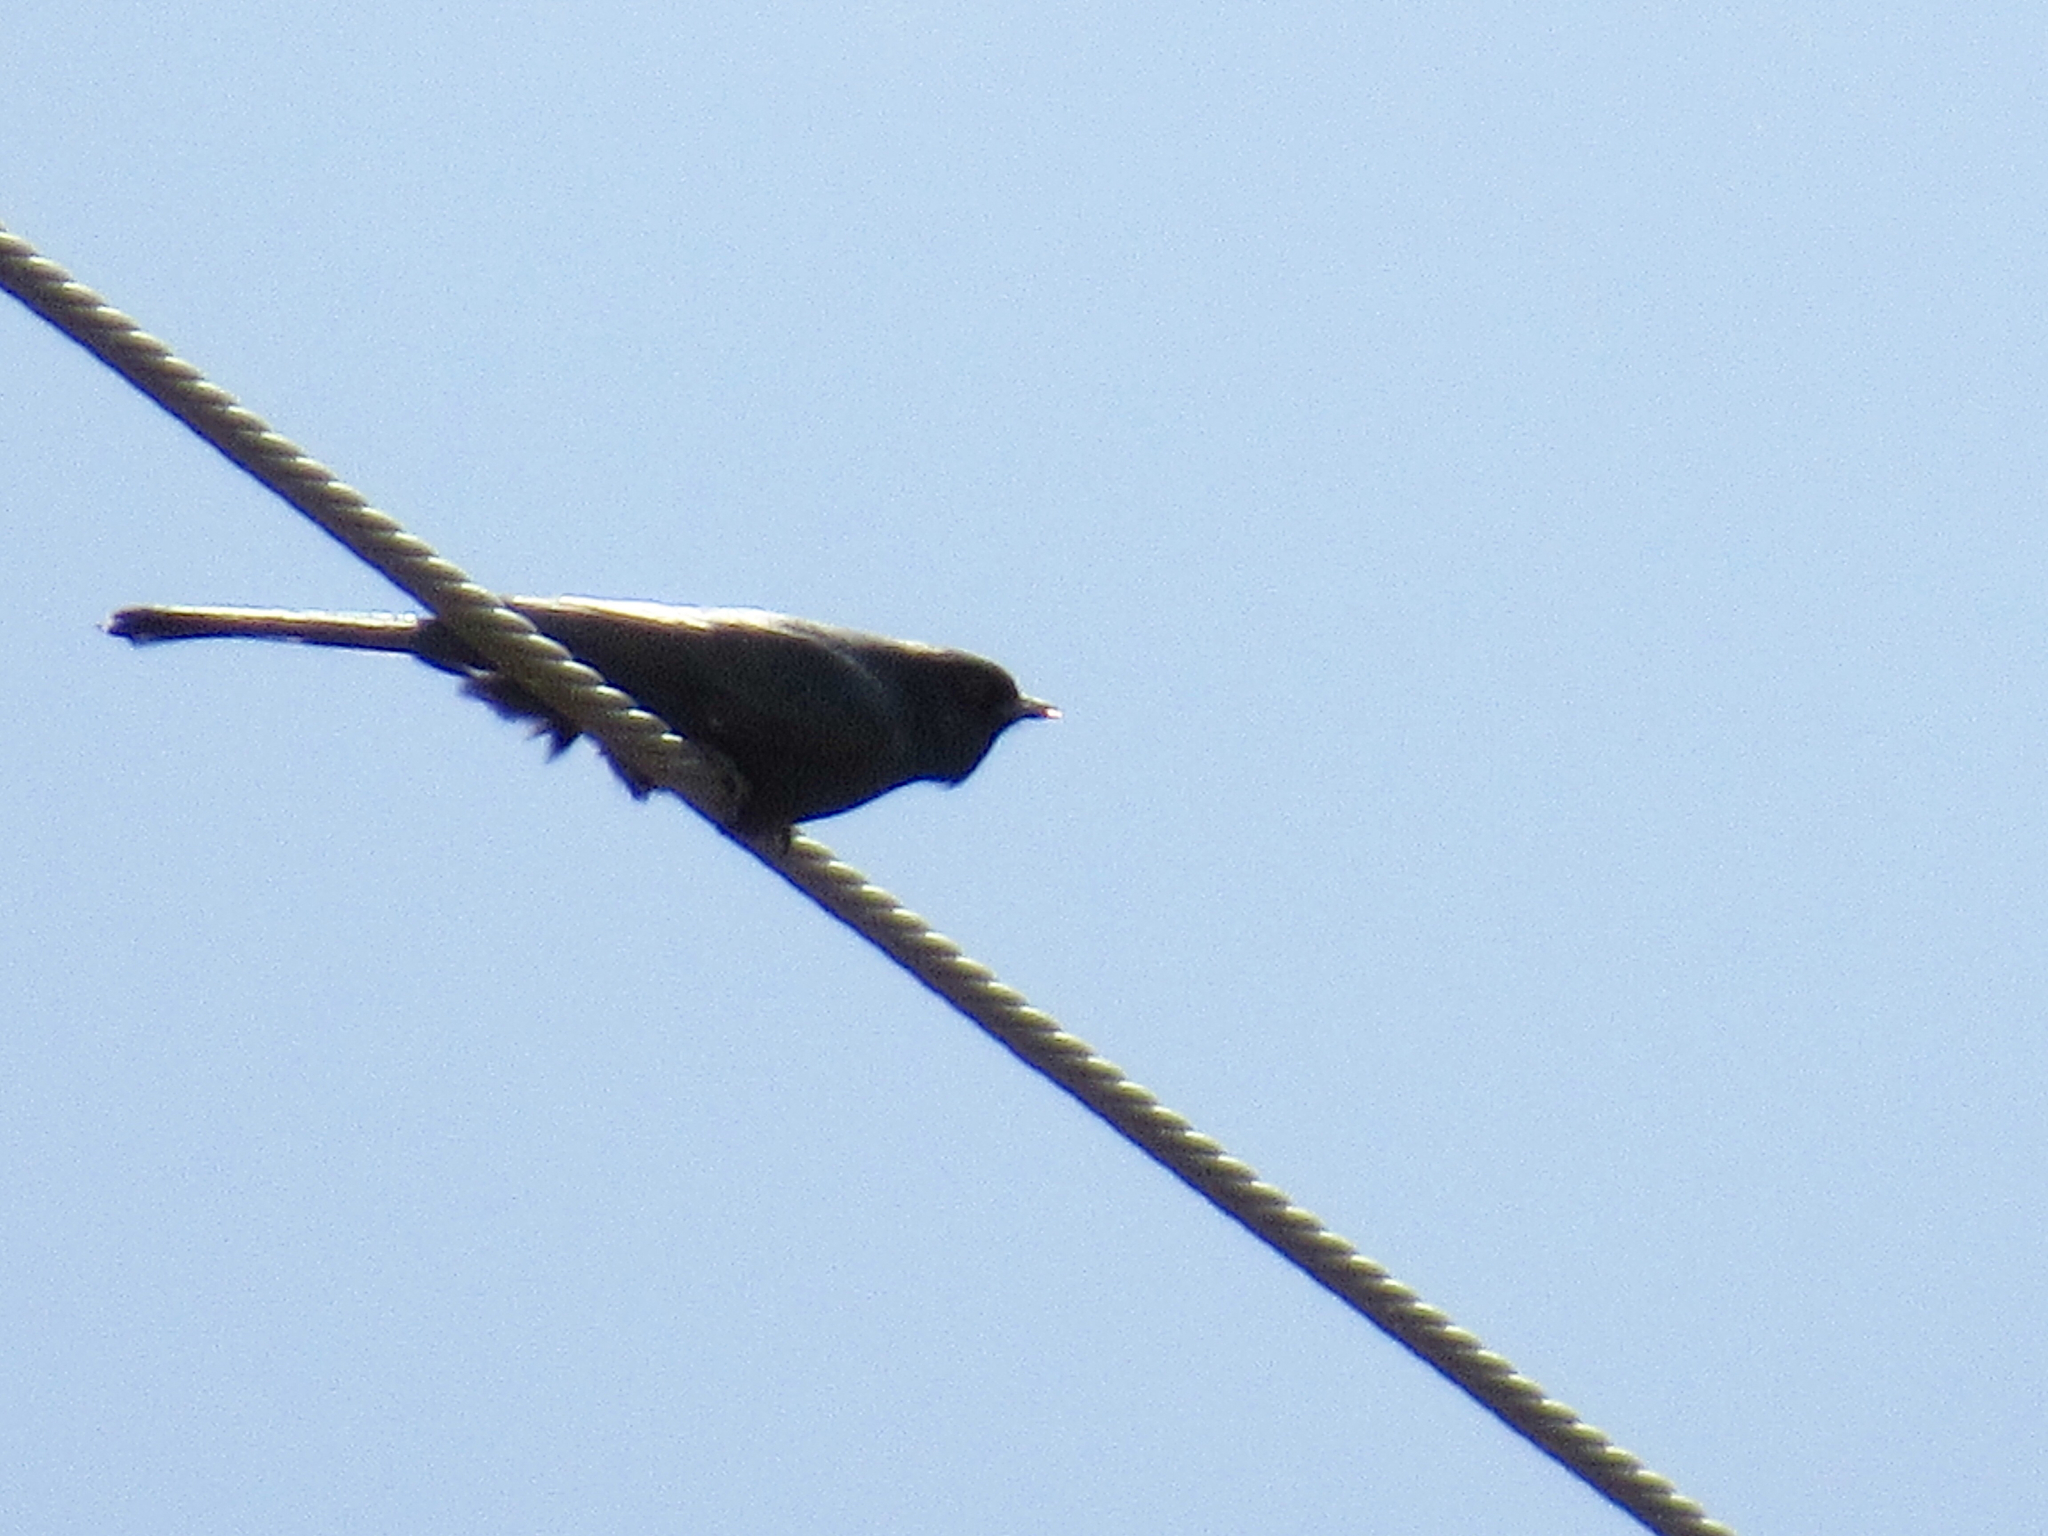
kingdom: Animalia
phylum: Chordata
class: Aves
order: Passeriformes
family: Ptilogonatidae
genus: Phainopepla
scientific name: Phainopepla nitens
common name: Phainopepla
